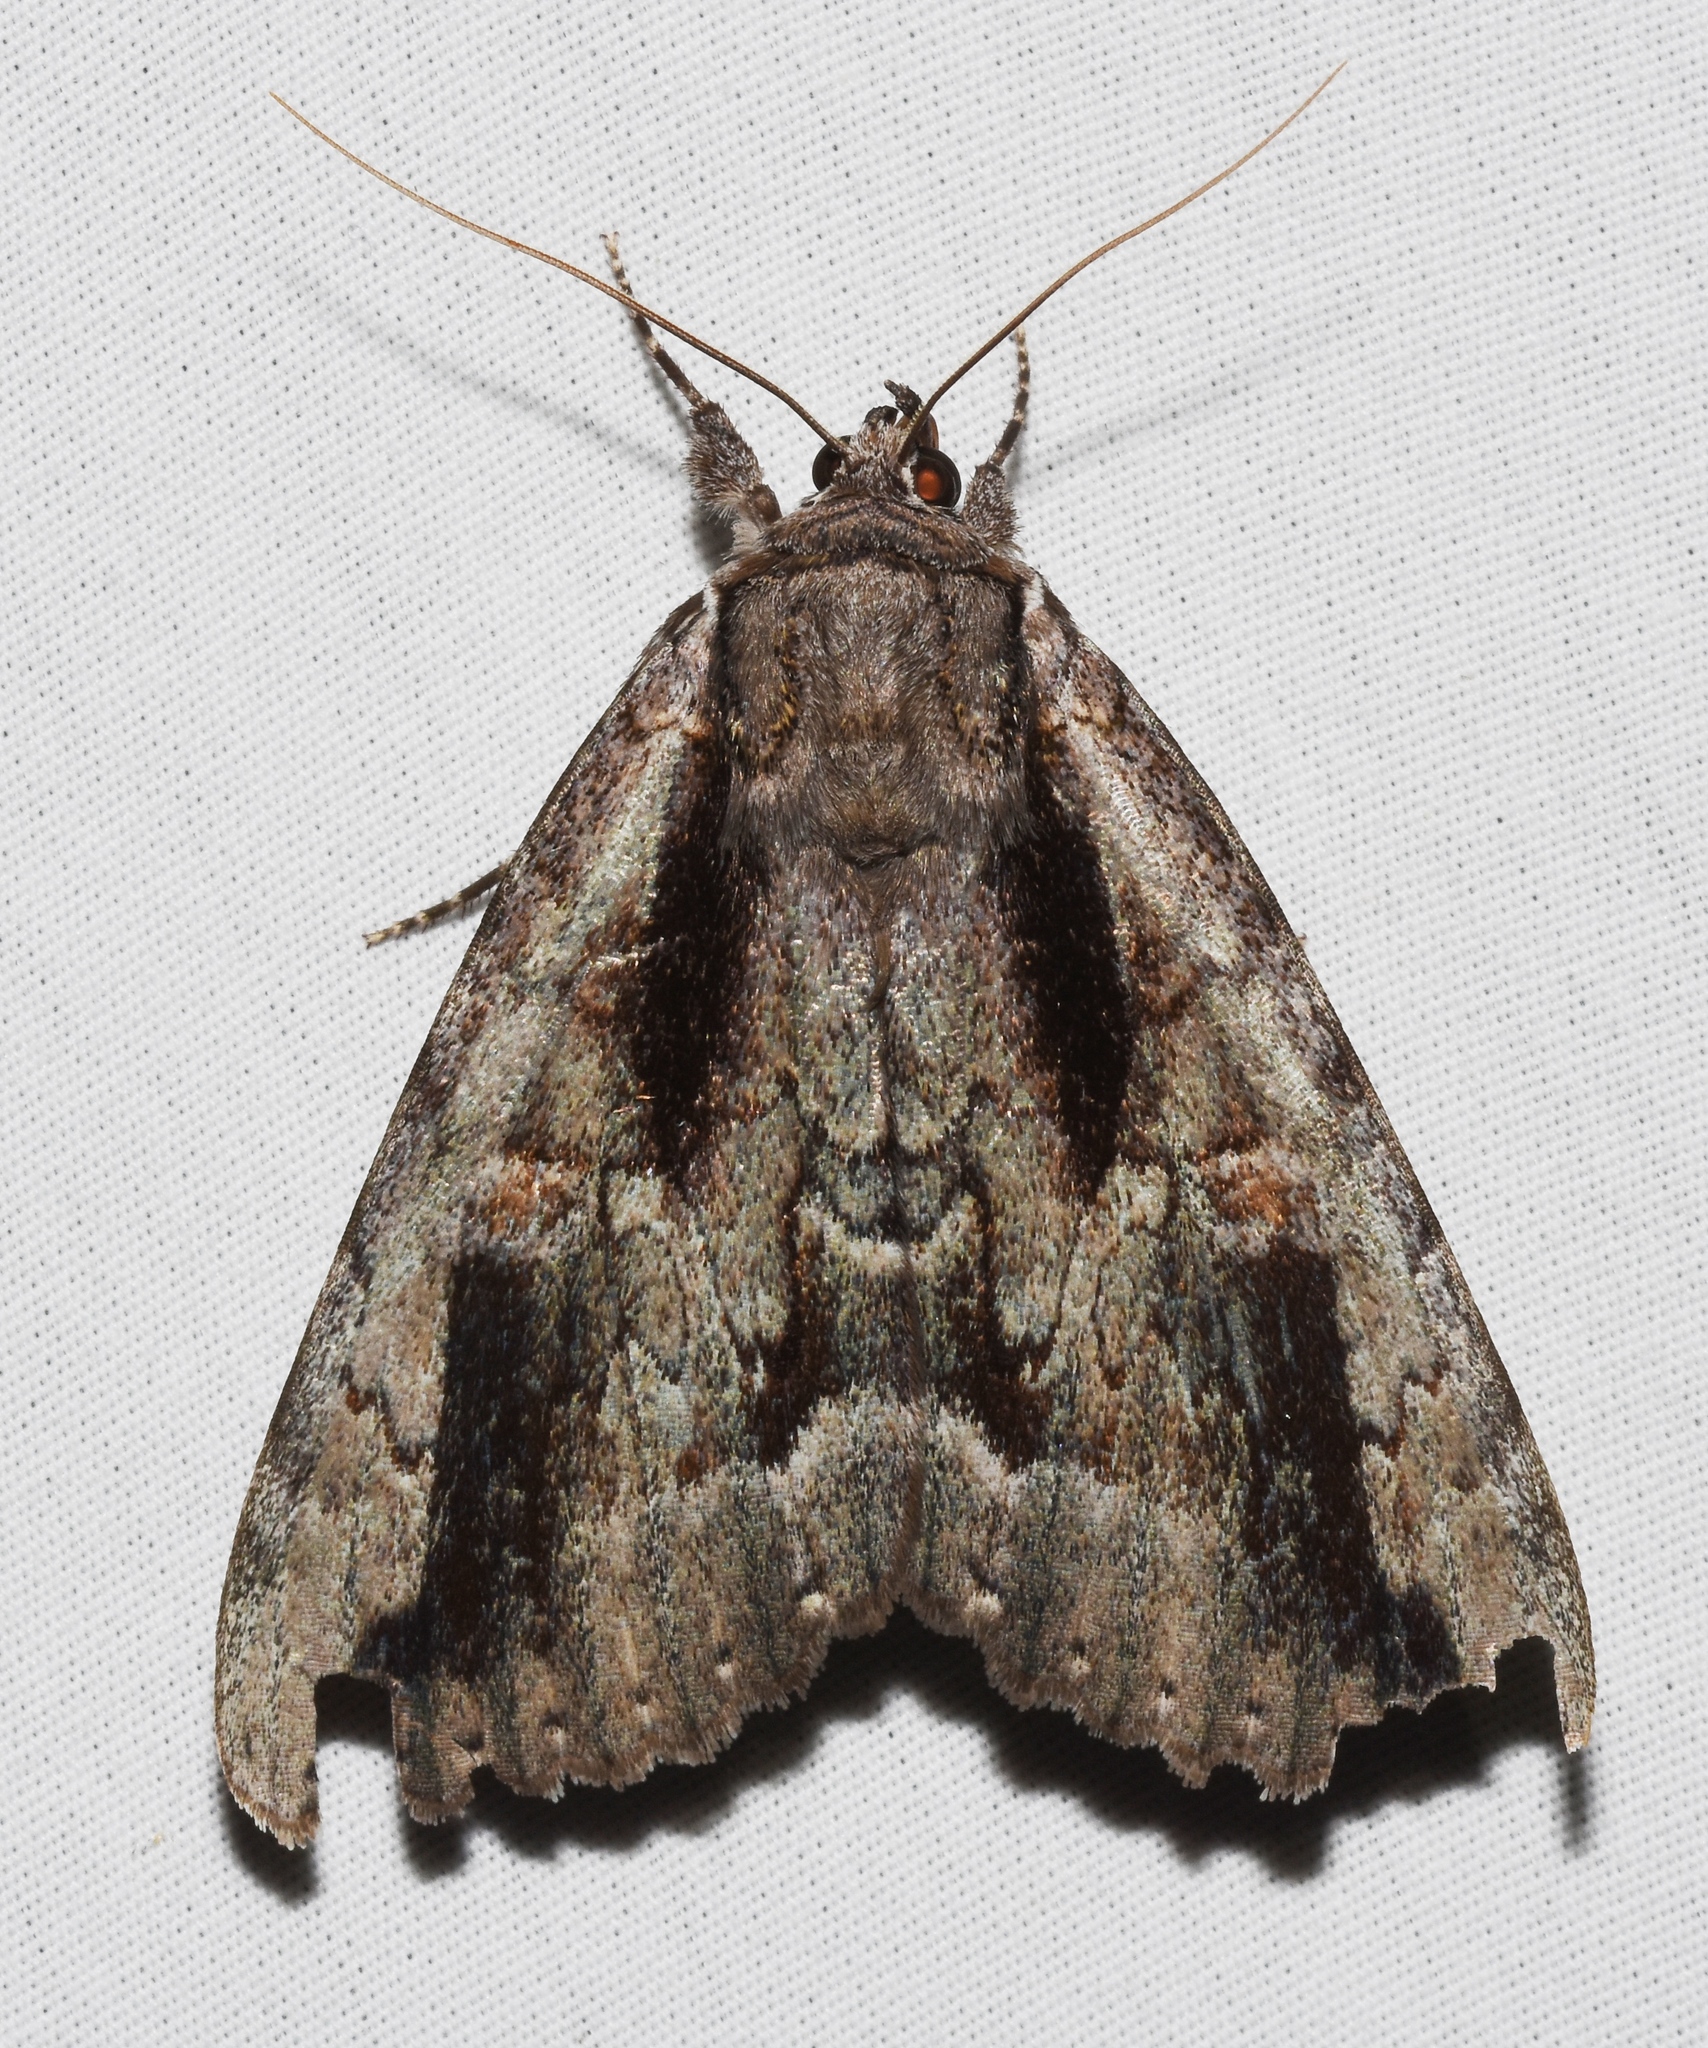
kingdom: Animalia
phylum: Arthropoda
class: Insecta
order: Lepidoptera
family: Erebidae
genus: Catocala
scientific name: Catocala angusi
